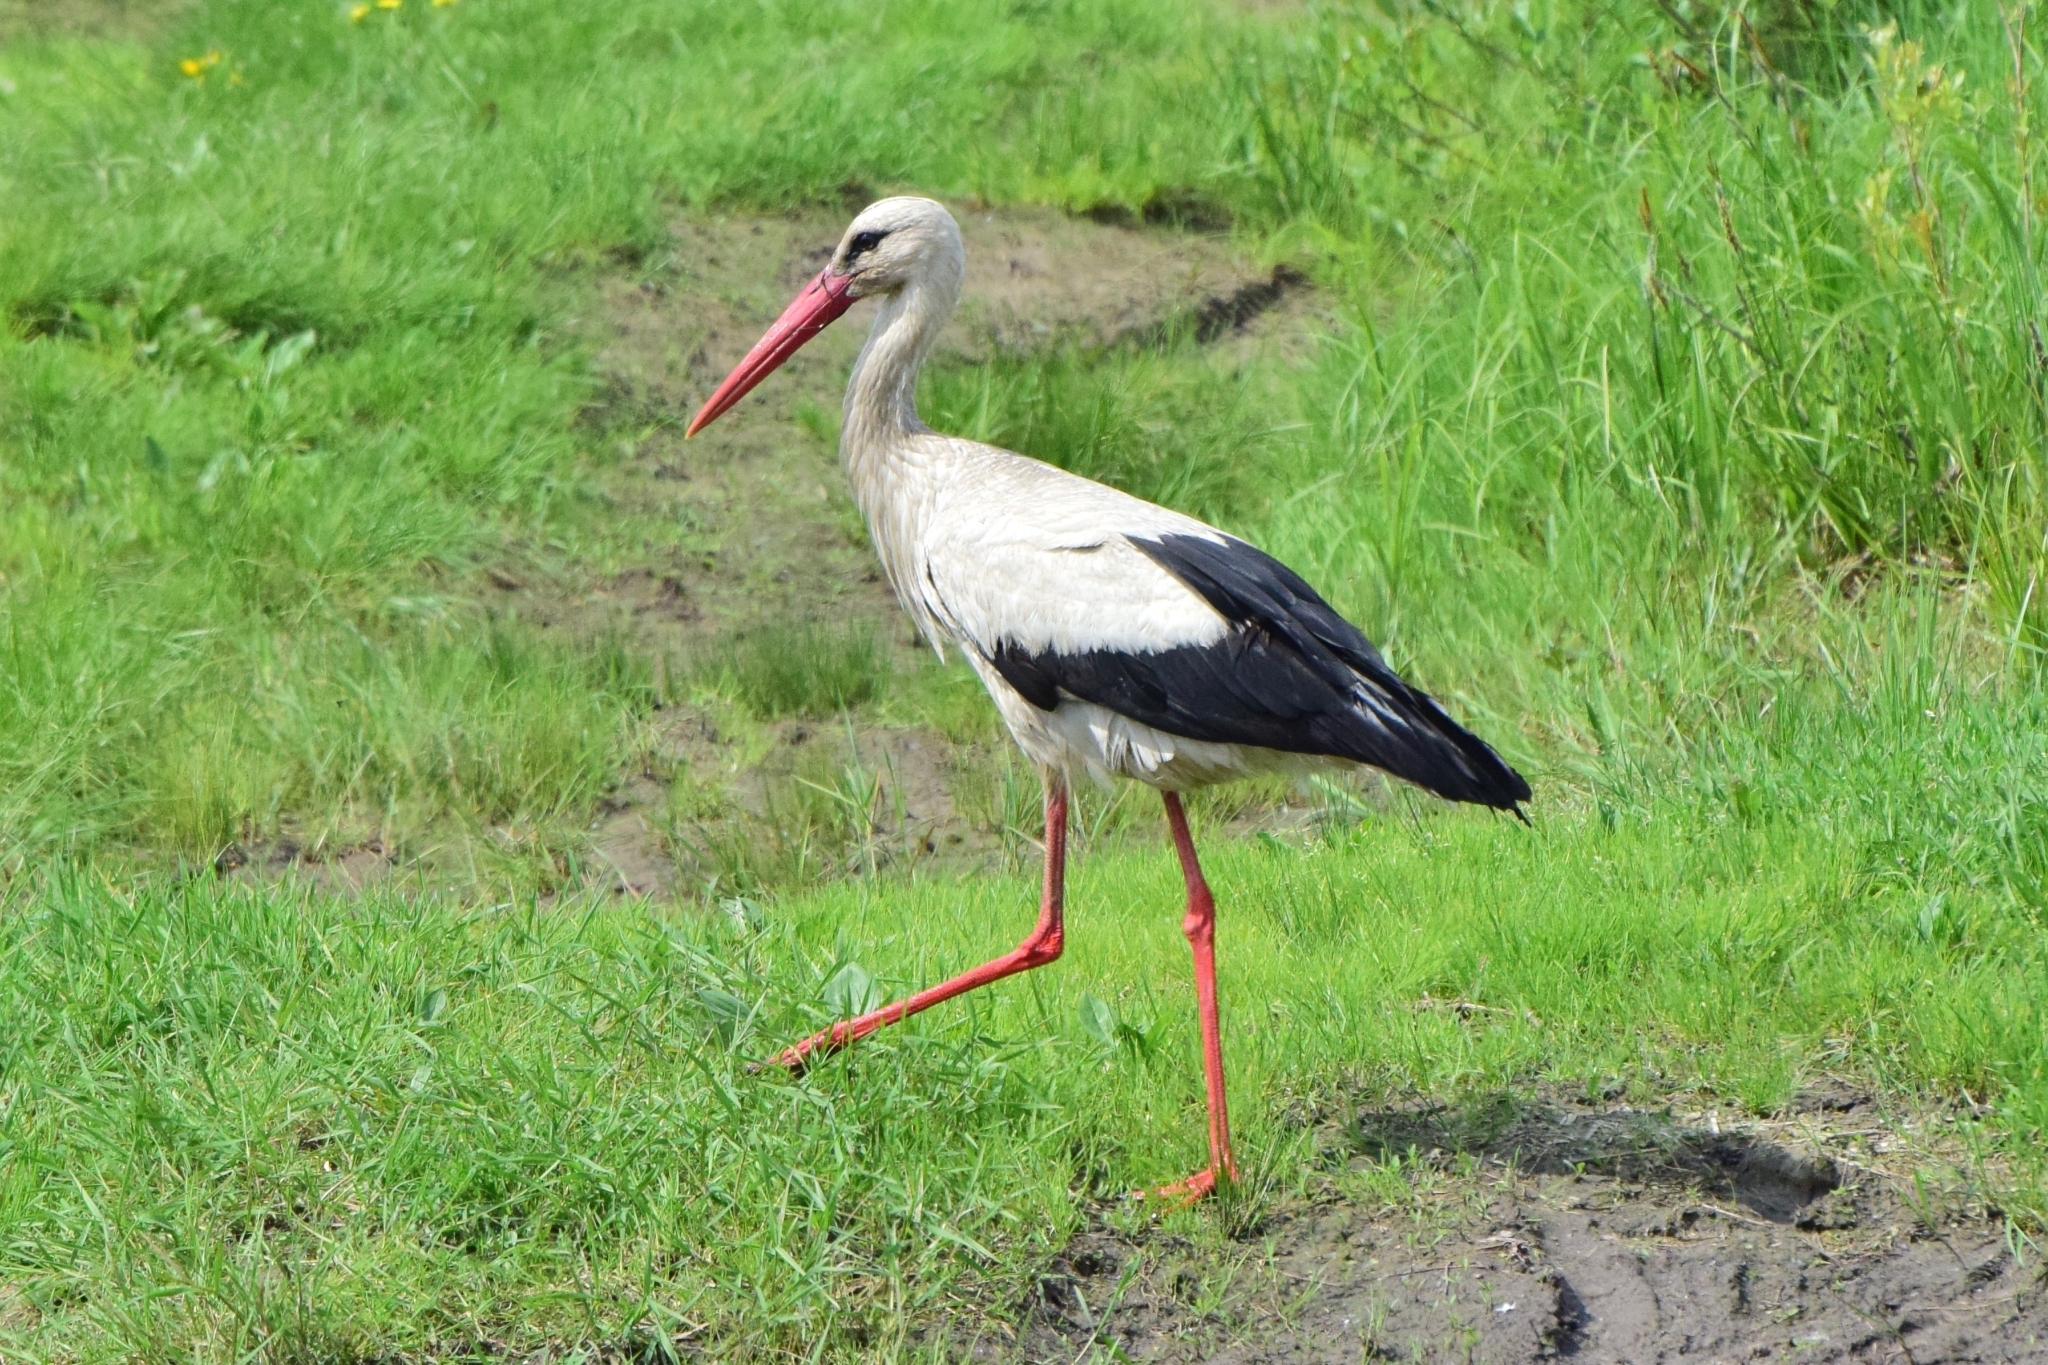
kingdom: Animalia
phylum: Chordata
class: Aves
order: Ciconiiformes
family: Ciconiidae
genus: Ciconia
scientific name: Ciconia ciconia
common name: White stork
